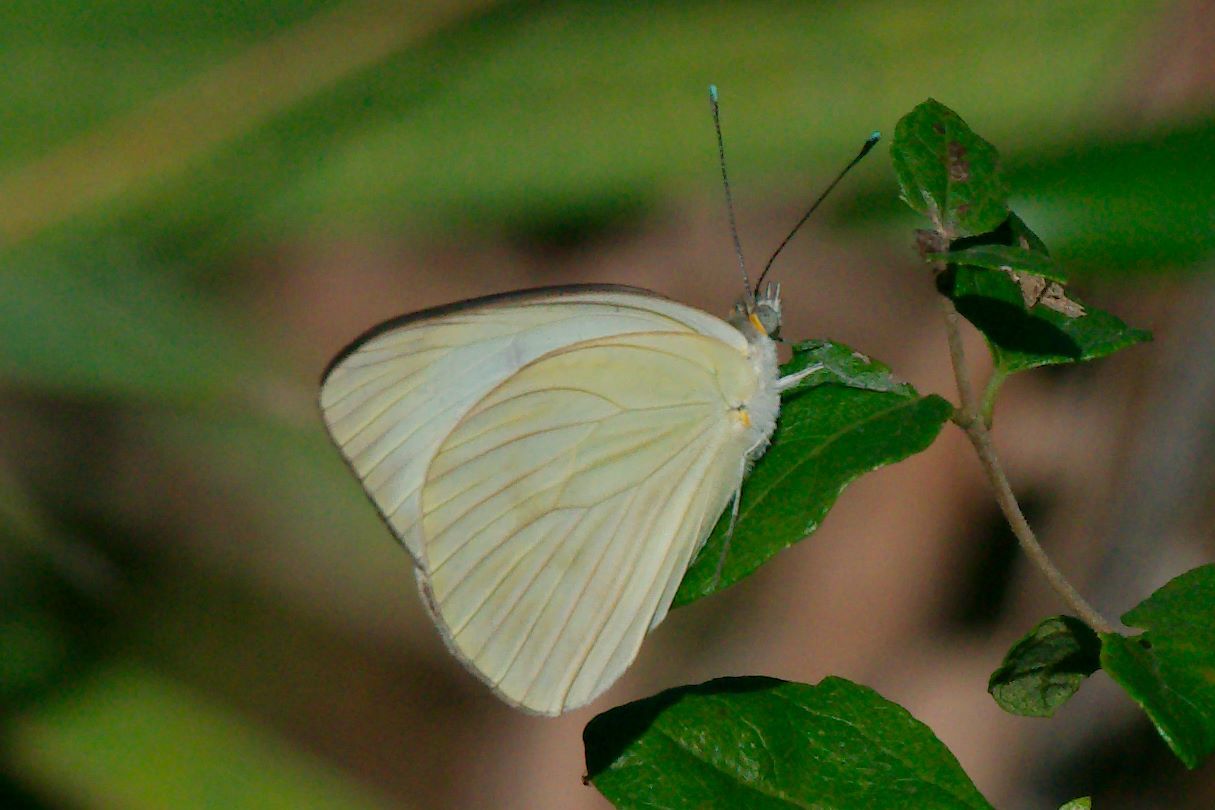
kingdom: Animalia
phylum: Arthropoda
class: Insecta
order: Lepidoptera
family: Pieridae
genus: Ascia
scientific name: Ascia monuste
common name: Great southern white
